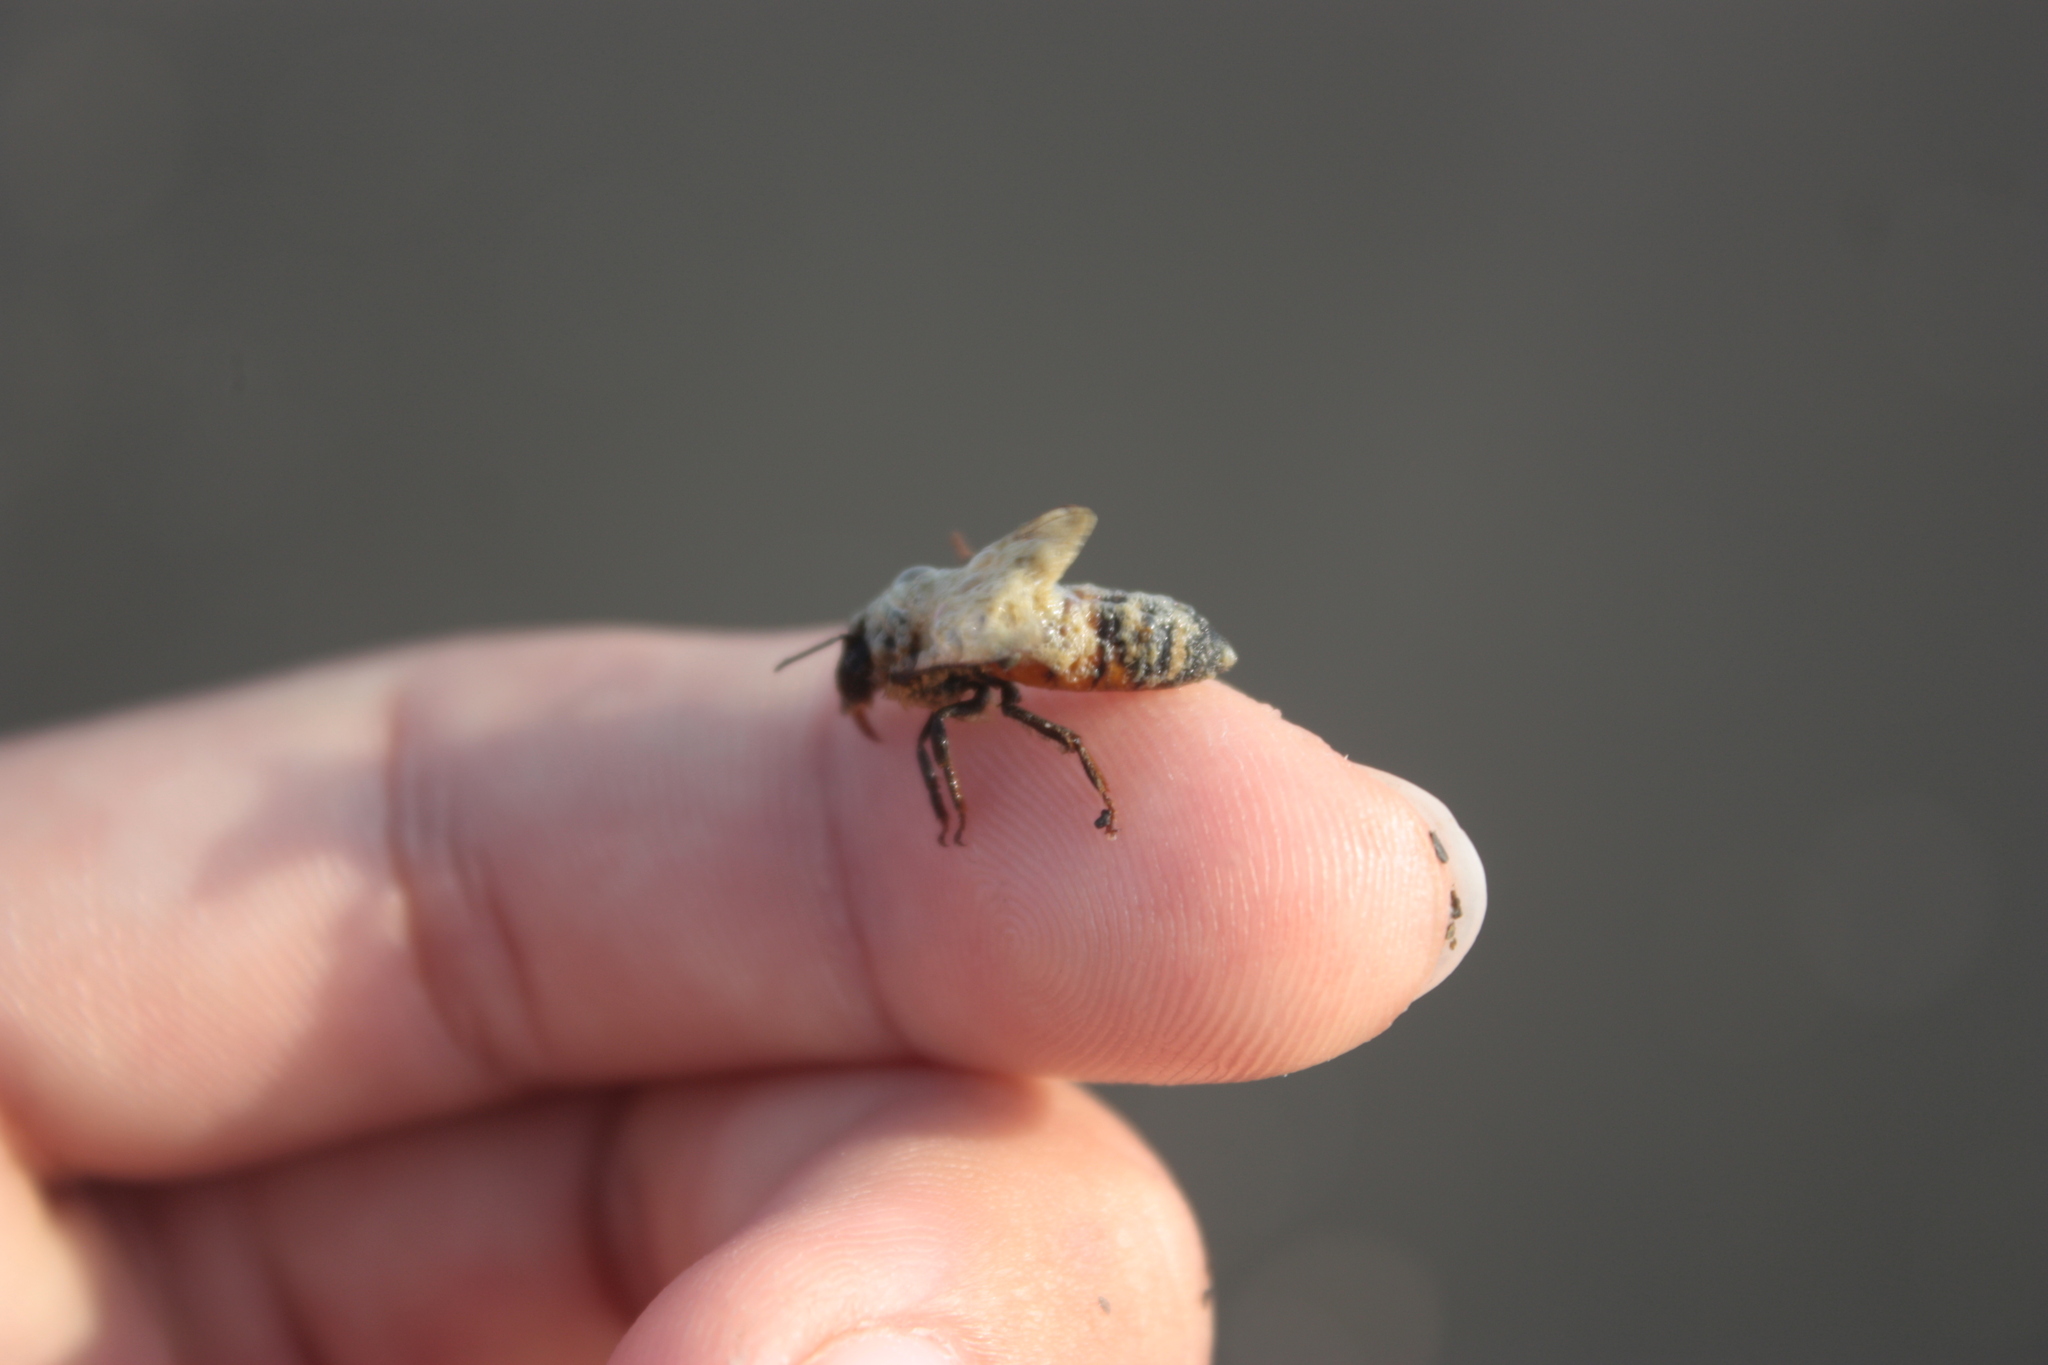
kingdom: Animalia
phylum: Arthropoda
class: Insecta
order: Hymenoptera
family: Apidae
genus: Apis
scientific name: Apis mellifera
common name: Honey bee
